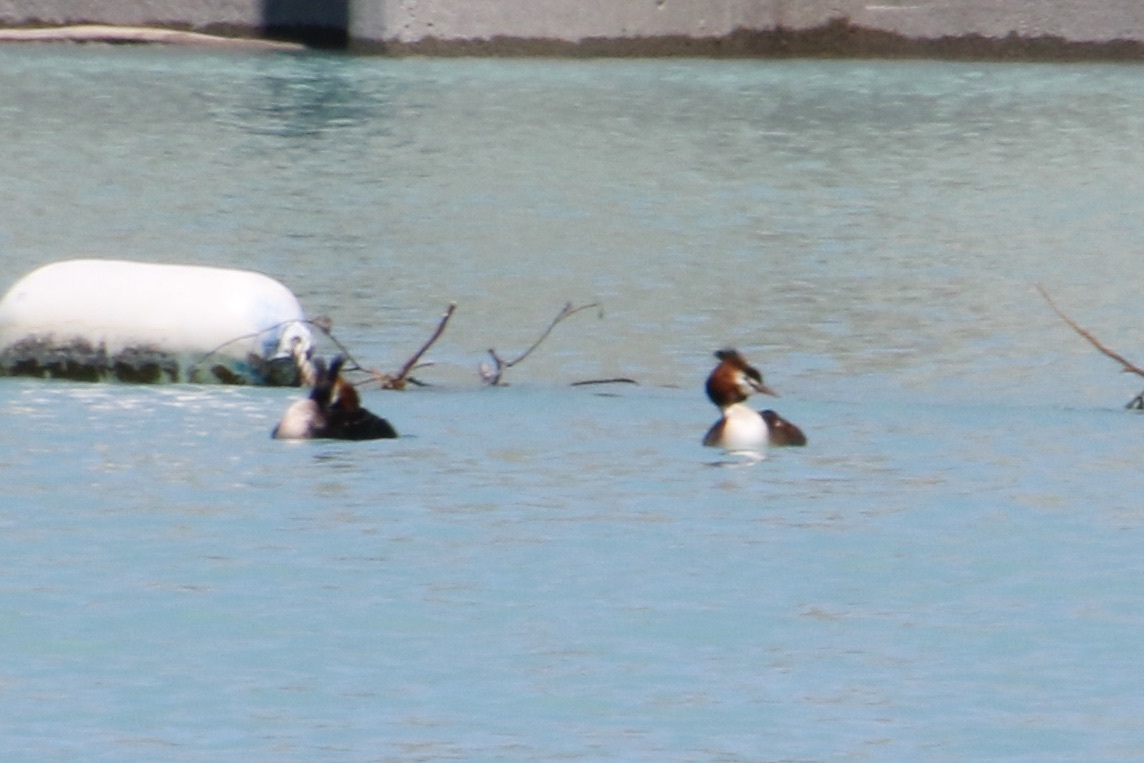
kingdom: Animalia
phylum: Chordata
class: Aves
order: Podicipediformes
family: Podicipedidae
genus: Podiceps
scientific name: Podiceps cristatus
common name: Great crested grebe
